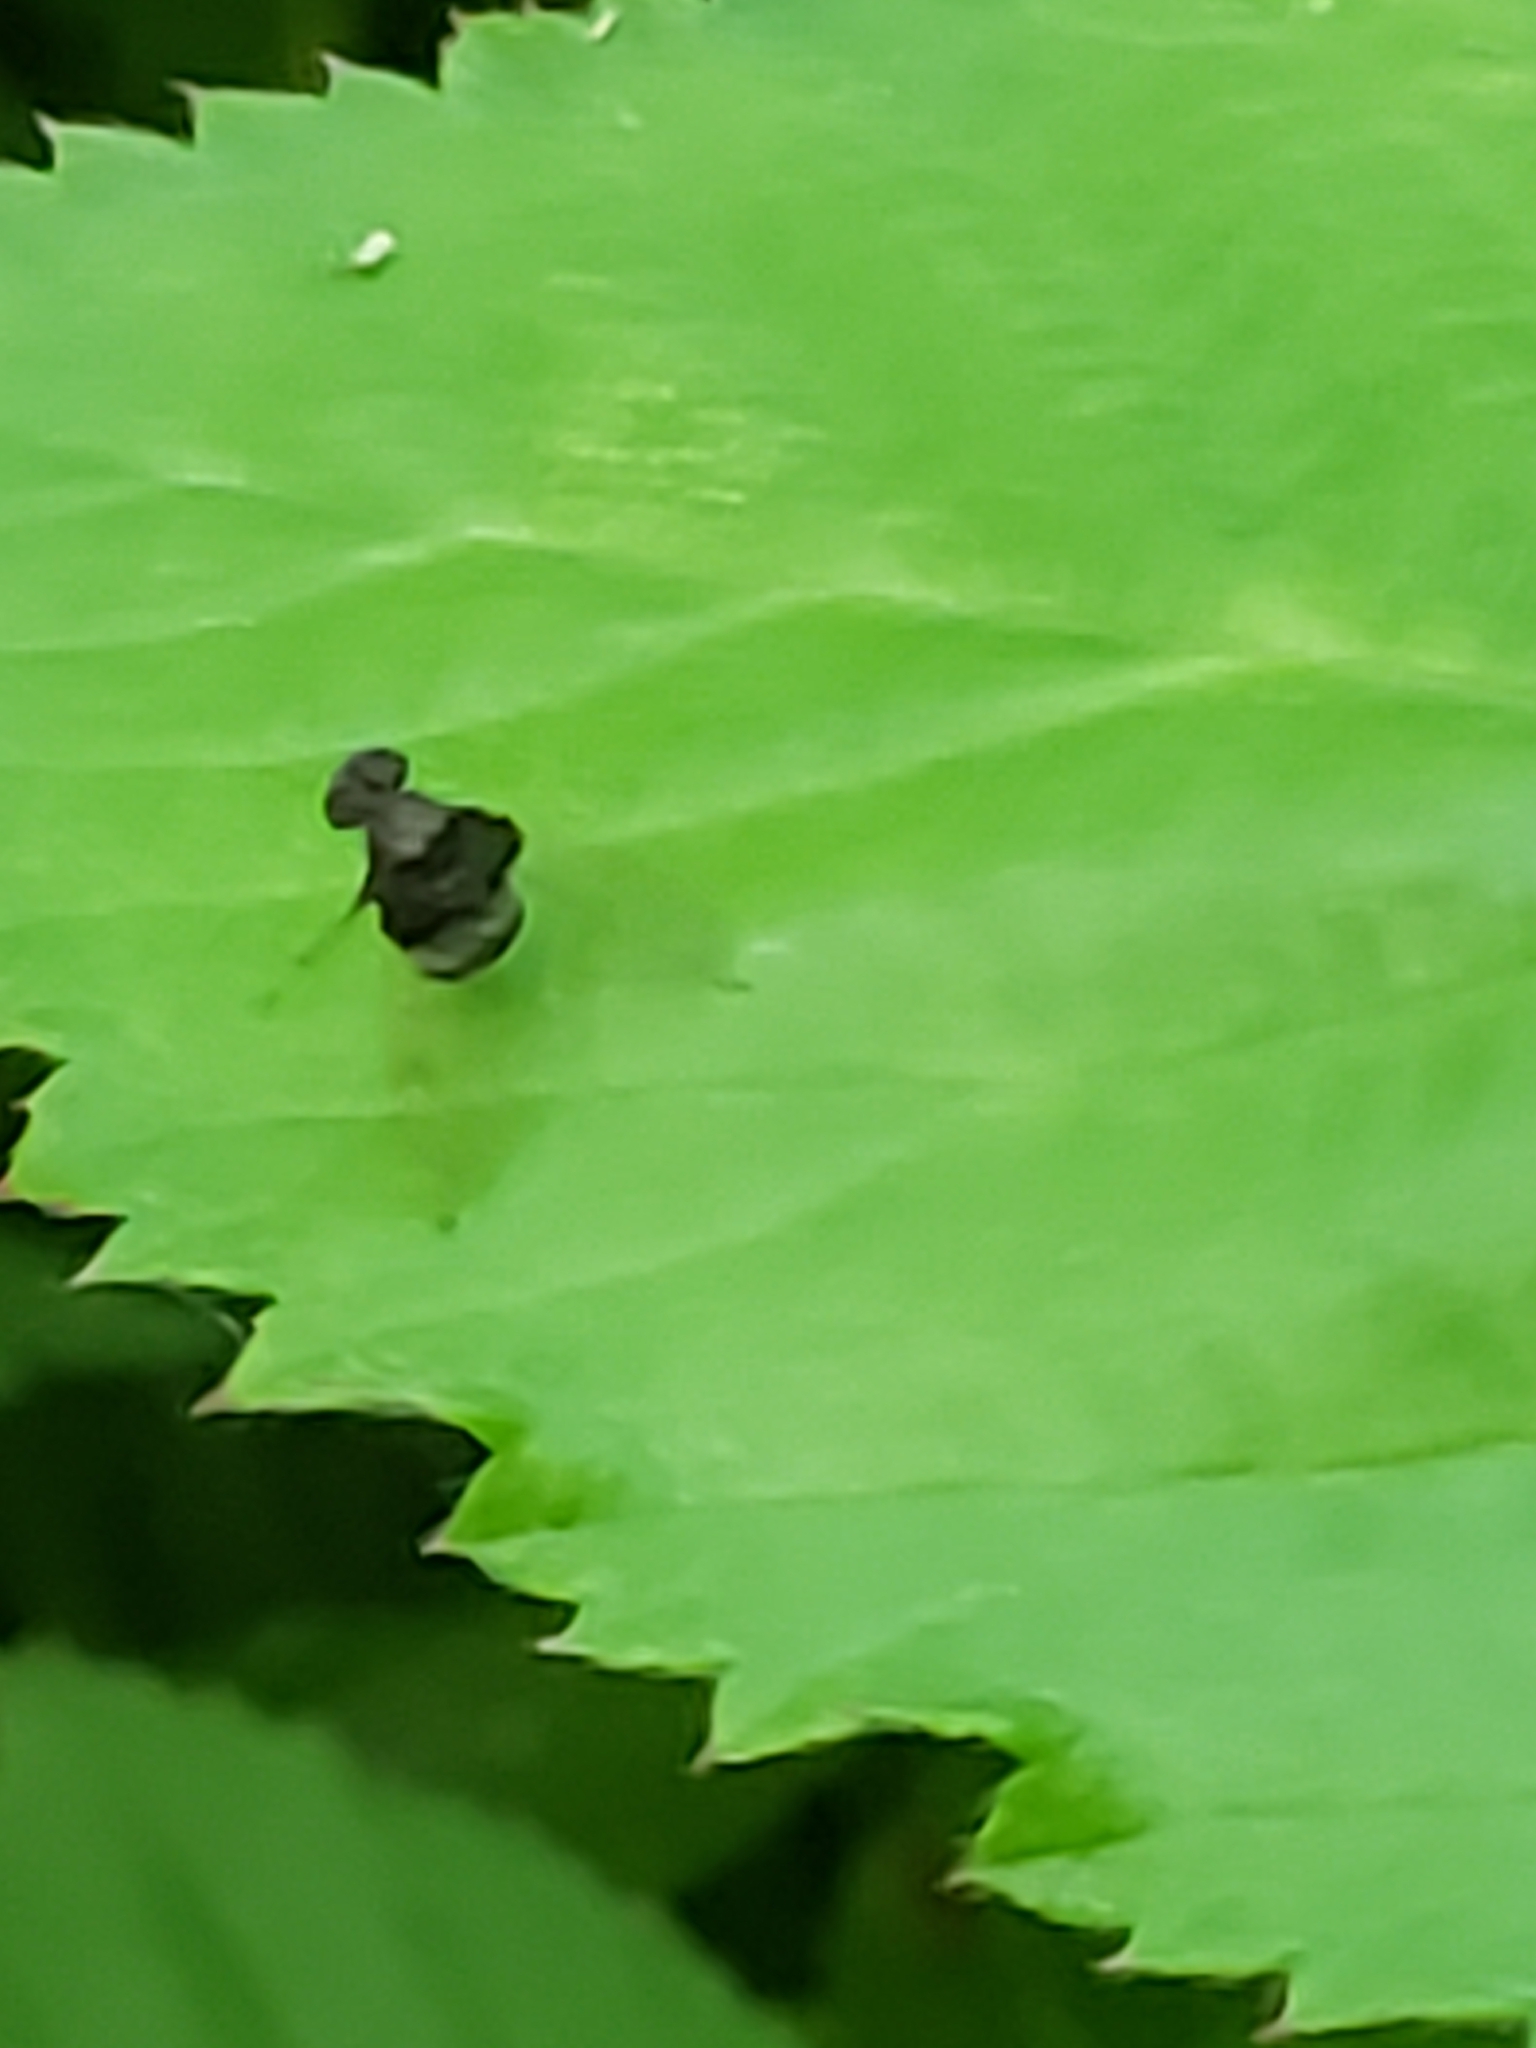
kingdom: Animalia
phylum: Arthropoda
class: Insecta
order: Diptera
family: Rhagionidae
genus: Chrysopilus
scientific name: Chrysopilus basilaris
